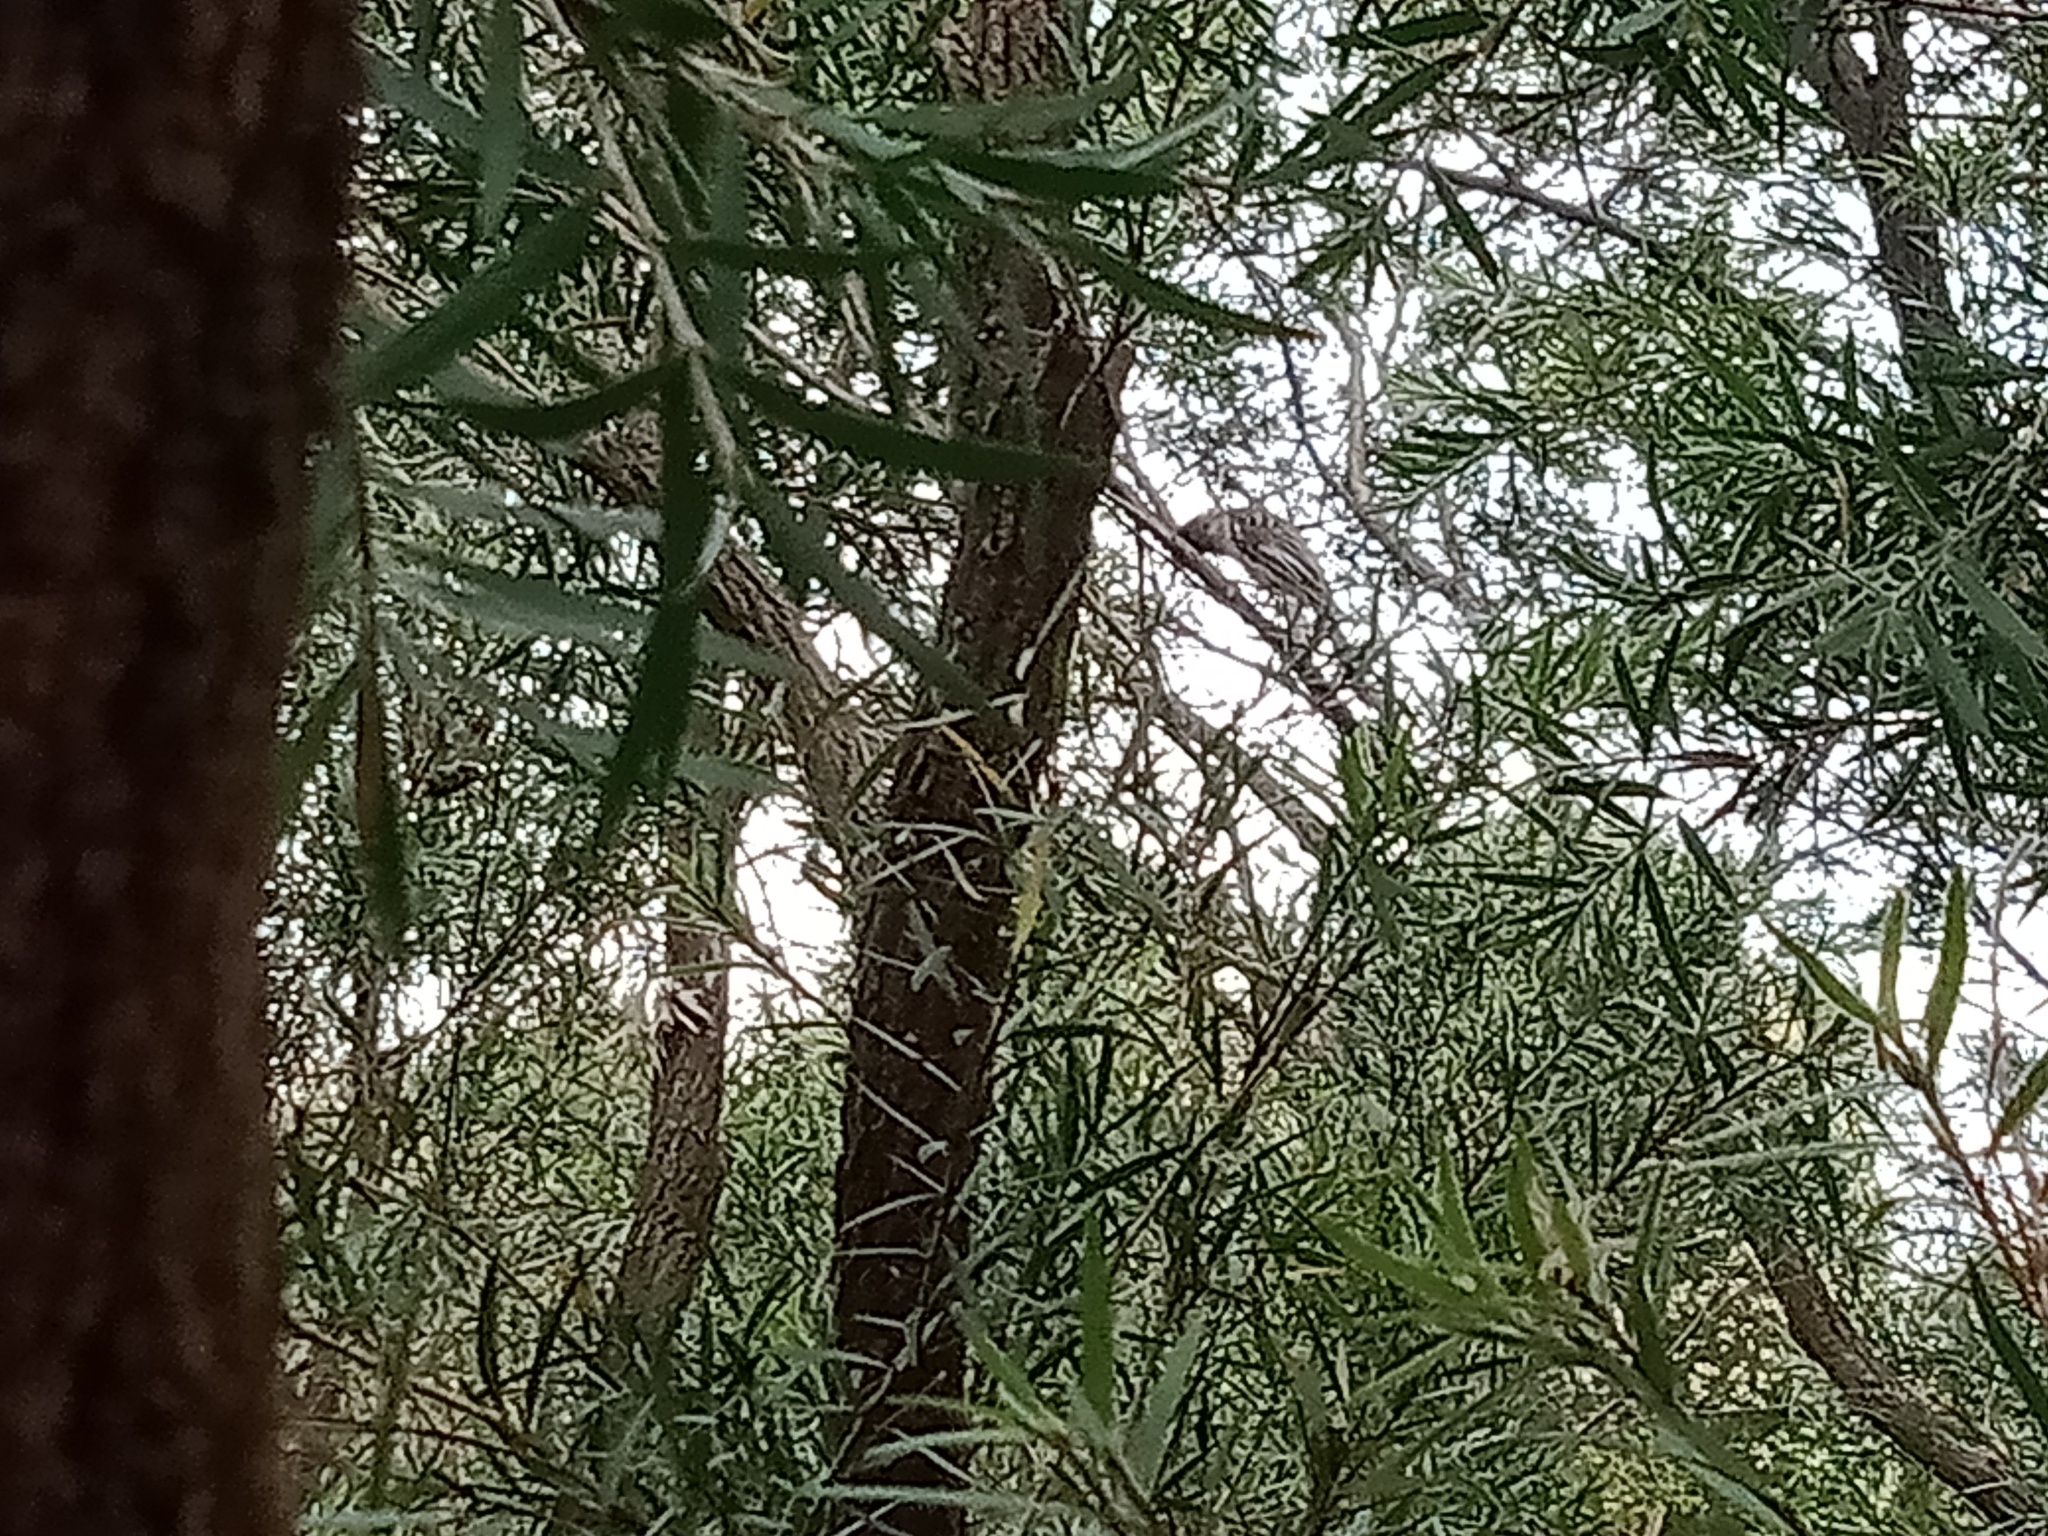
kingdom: Animalia
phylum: Chordata
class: Aves
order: Passeriformes
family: Meliphagidae
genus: Anthochaera
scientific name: Anthochaera carunculata
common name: Red wattlebird
